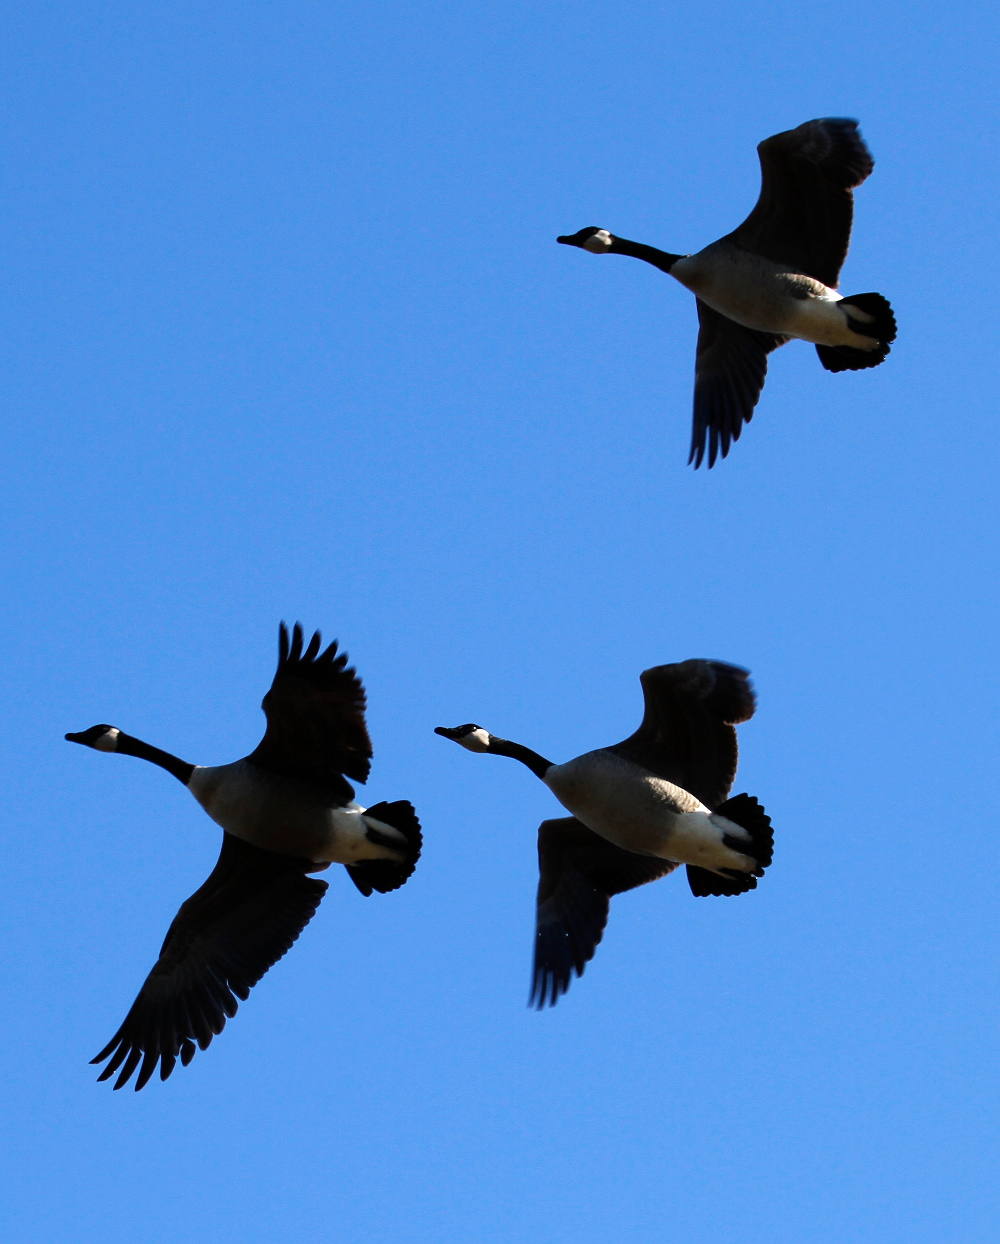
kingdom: Animalia
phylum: Chordata
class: Aves
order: Anseriformes
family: Anatidae
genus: Branta
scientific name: Branta canadensis
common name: Canada goose
